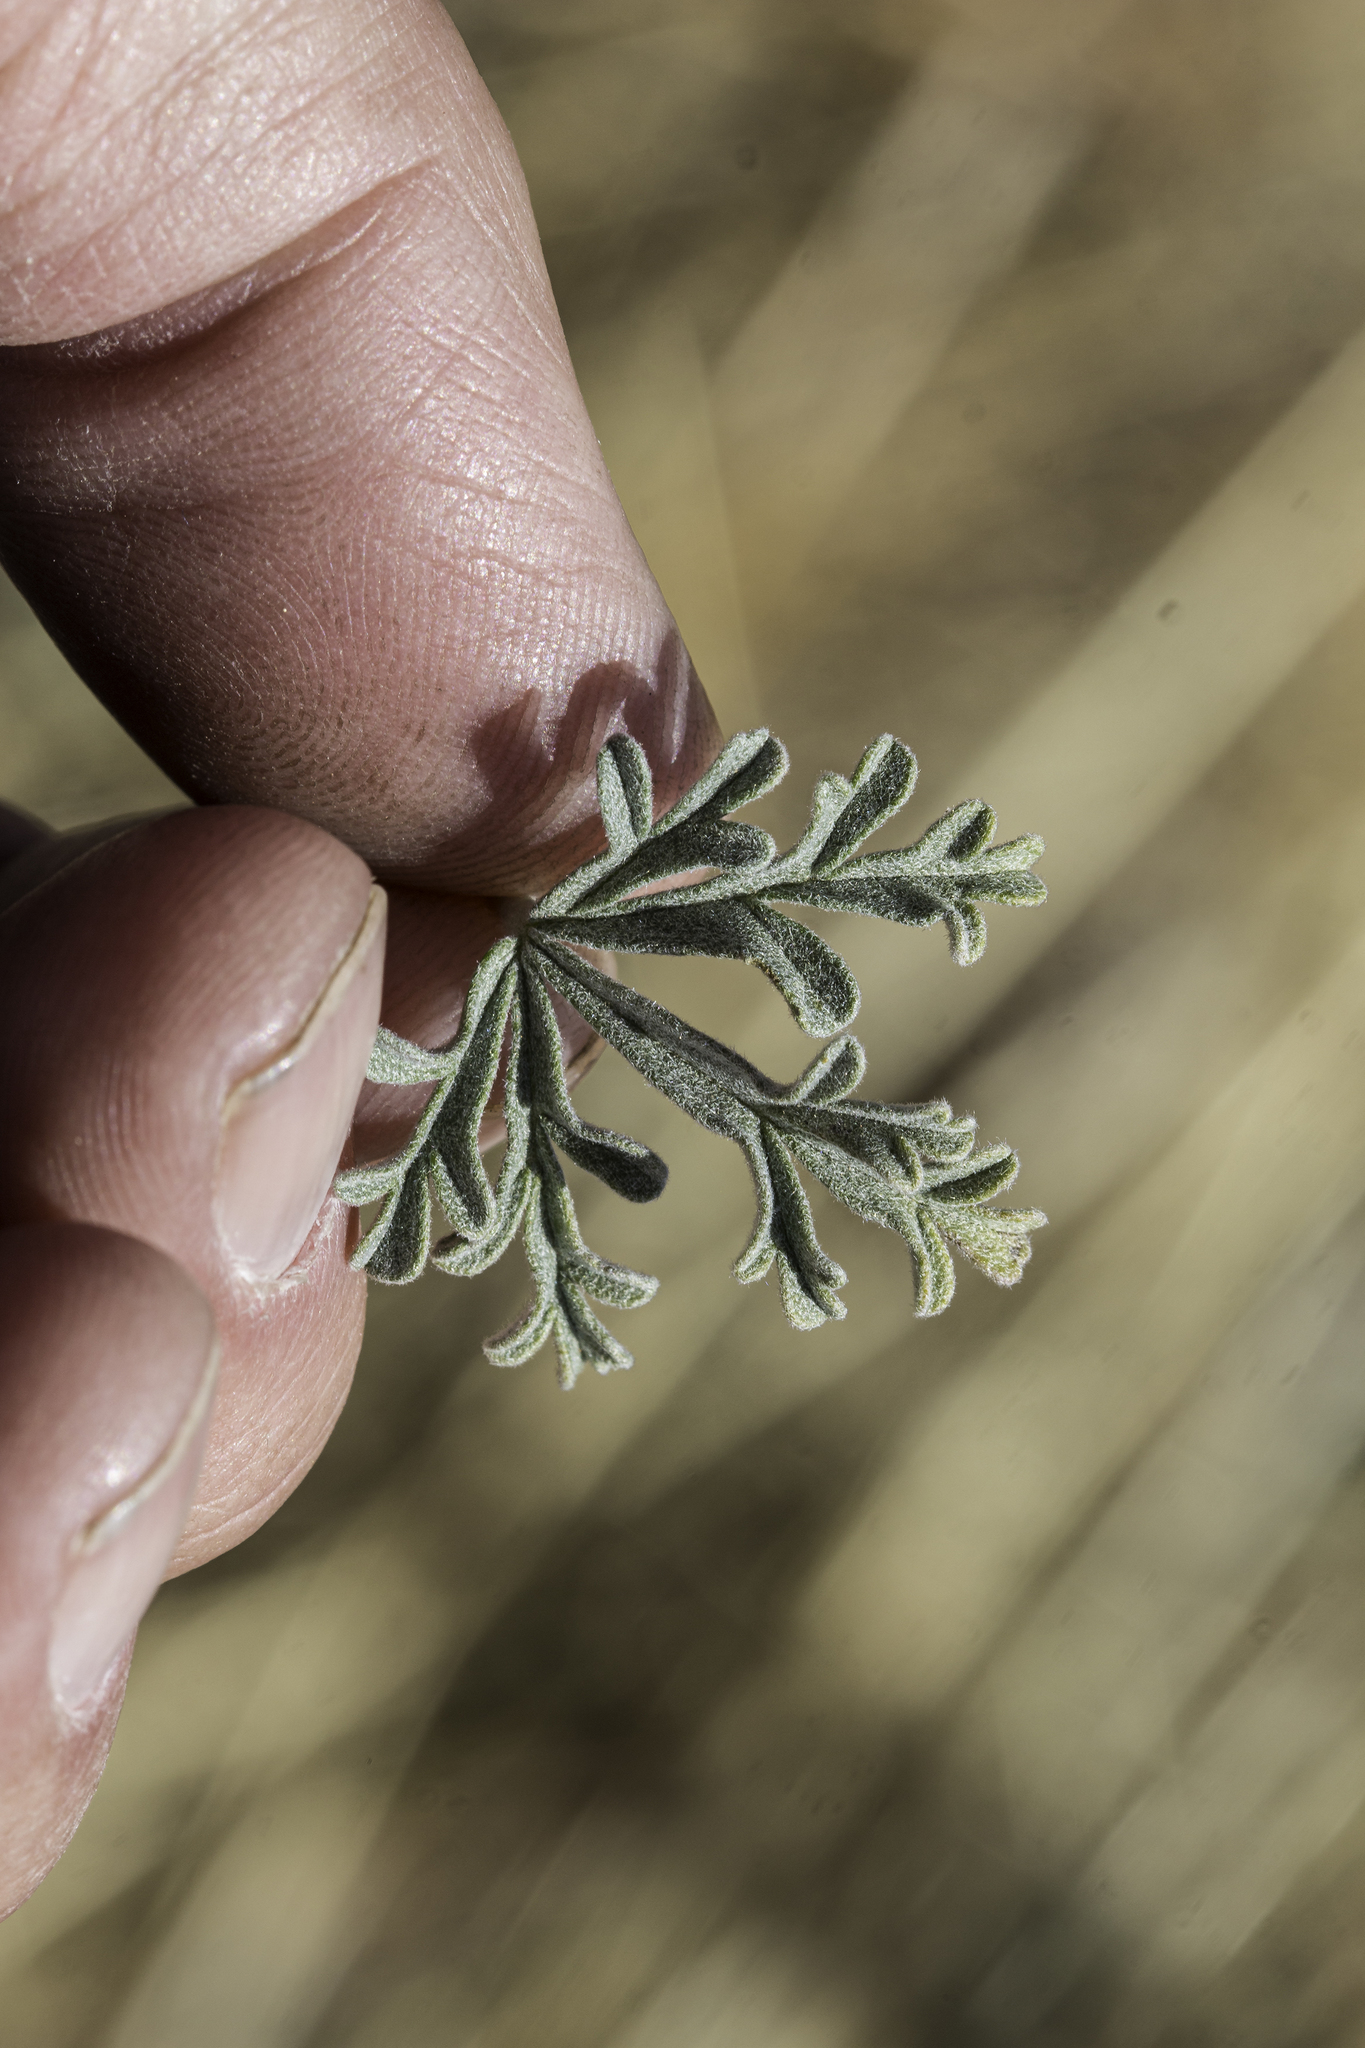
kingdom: Plantae
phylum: Tracheophyta
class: Magnoliopsida
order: Malvales
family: Malvaceae
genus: Sphaeralcea
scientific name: Sphaeralcea coccinea
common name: Moss-rose
